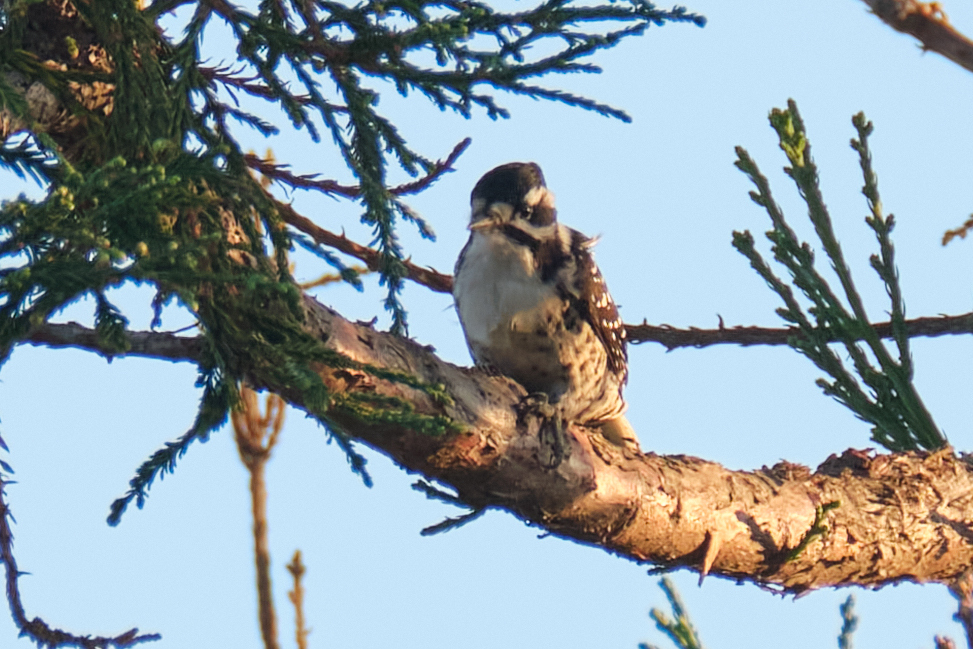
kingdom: Animalia
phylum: Chordata
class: Aves
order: Piciformes
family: Picidae
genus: Dryobates
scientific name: Dryobates nuttallii
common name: Nuttall's woodpecker
